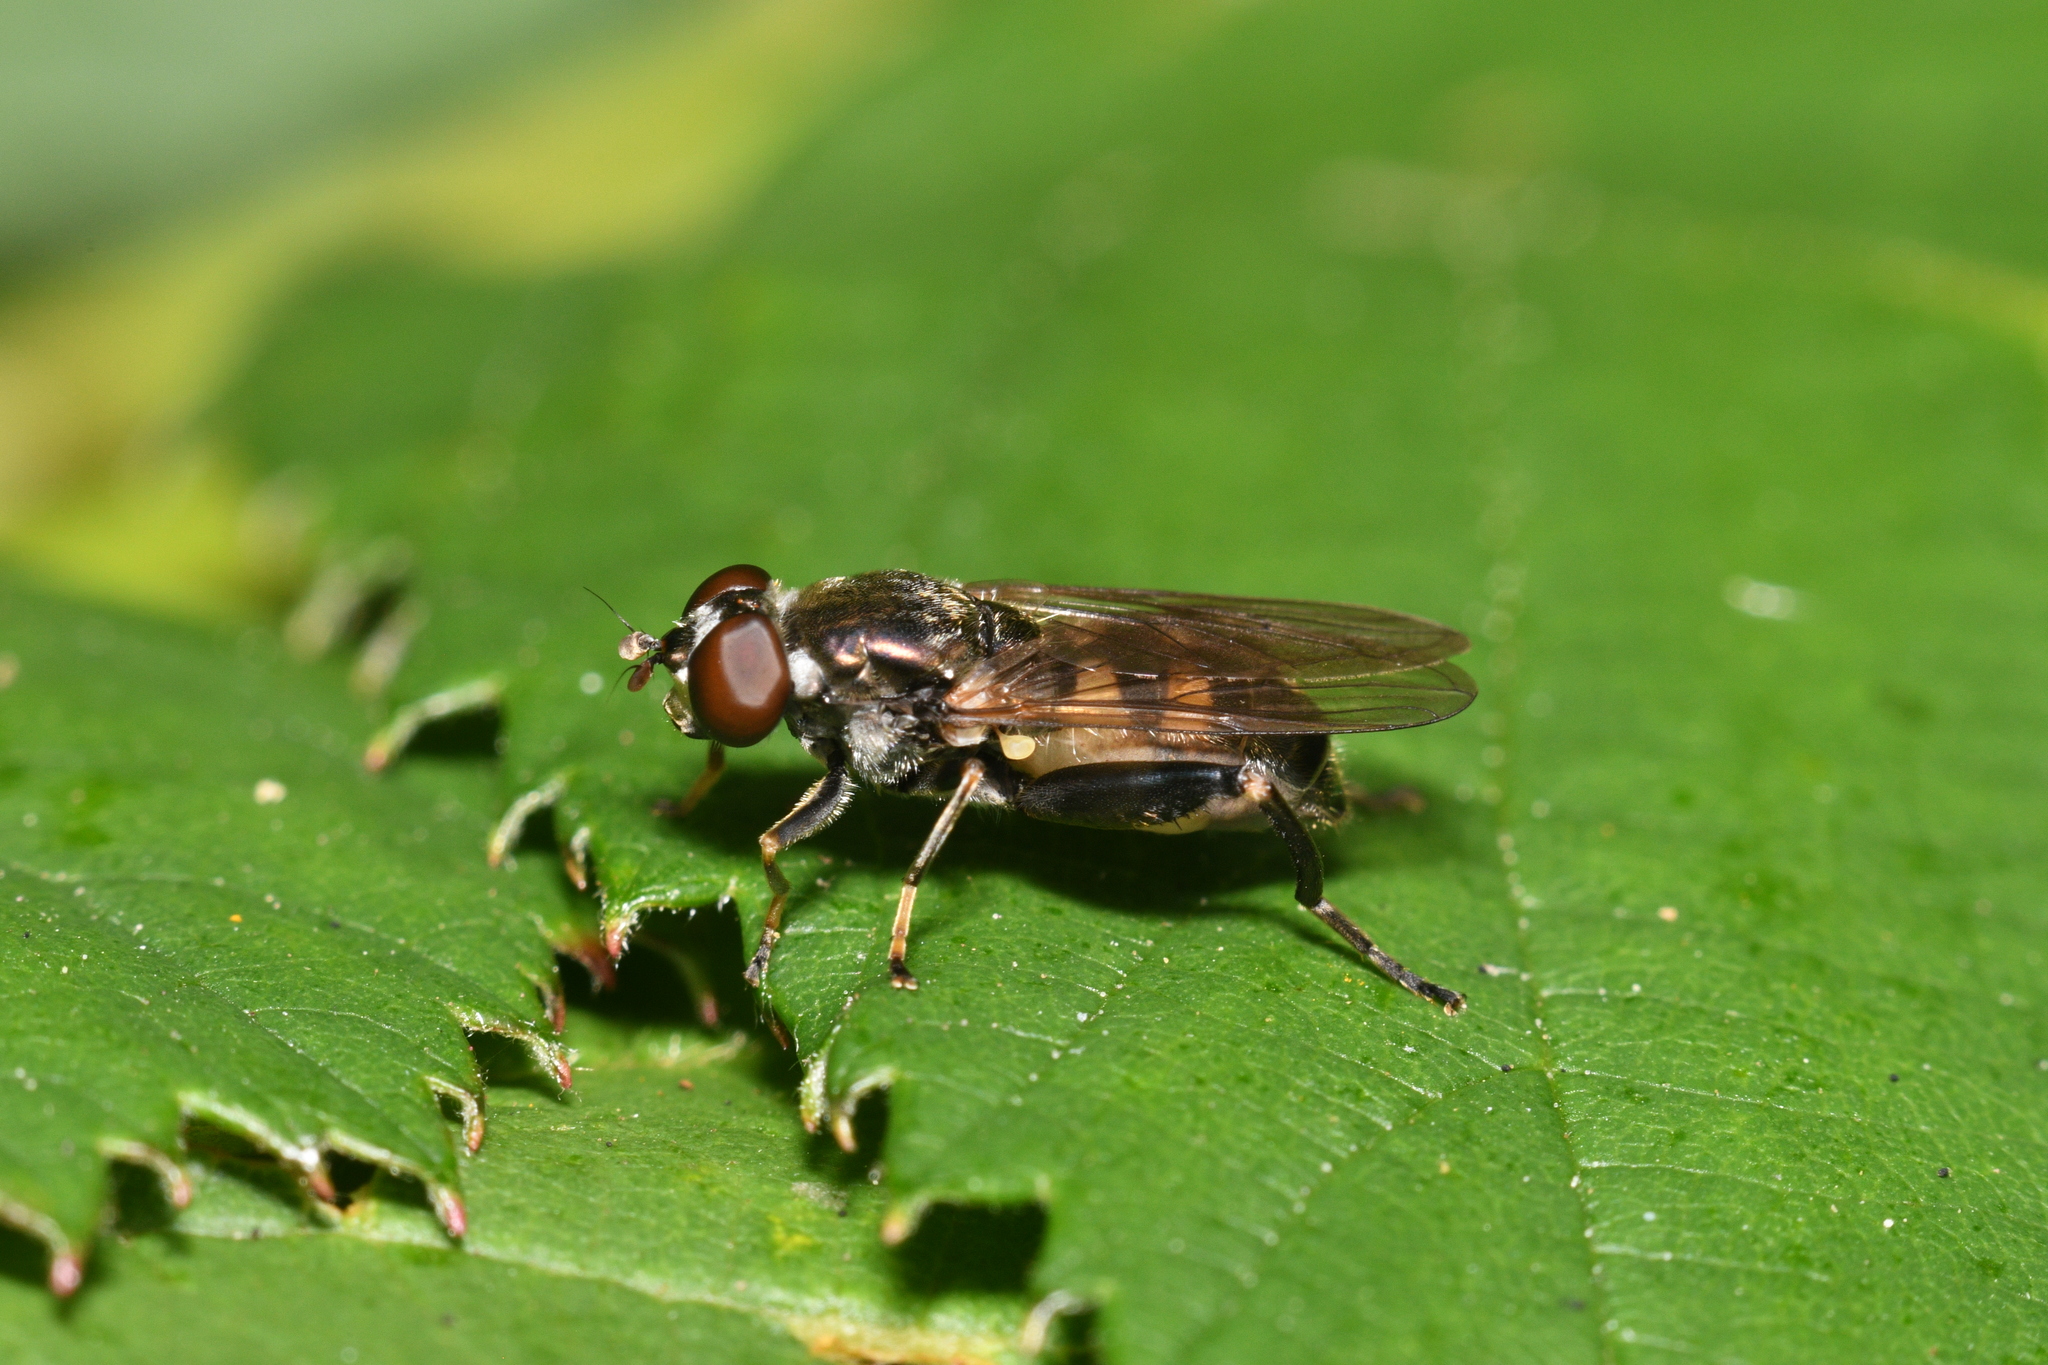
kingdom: Animalia
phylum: Arthropoda
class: Insecta
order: Diptera
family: Syrphidae
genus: Chalcosyrphus
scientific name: Chalcosyrphus nemorum
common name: Dusky-banded forest fly
